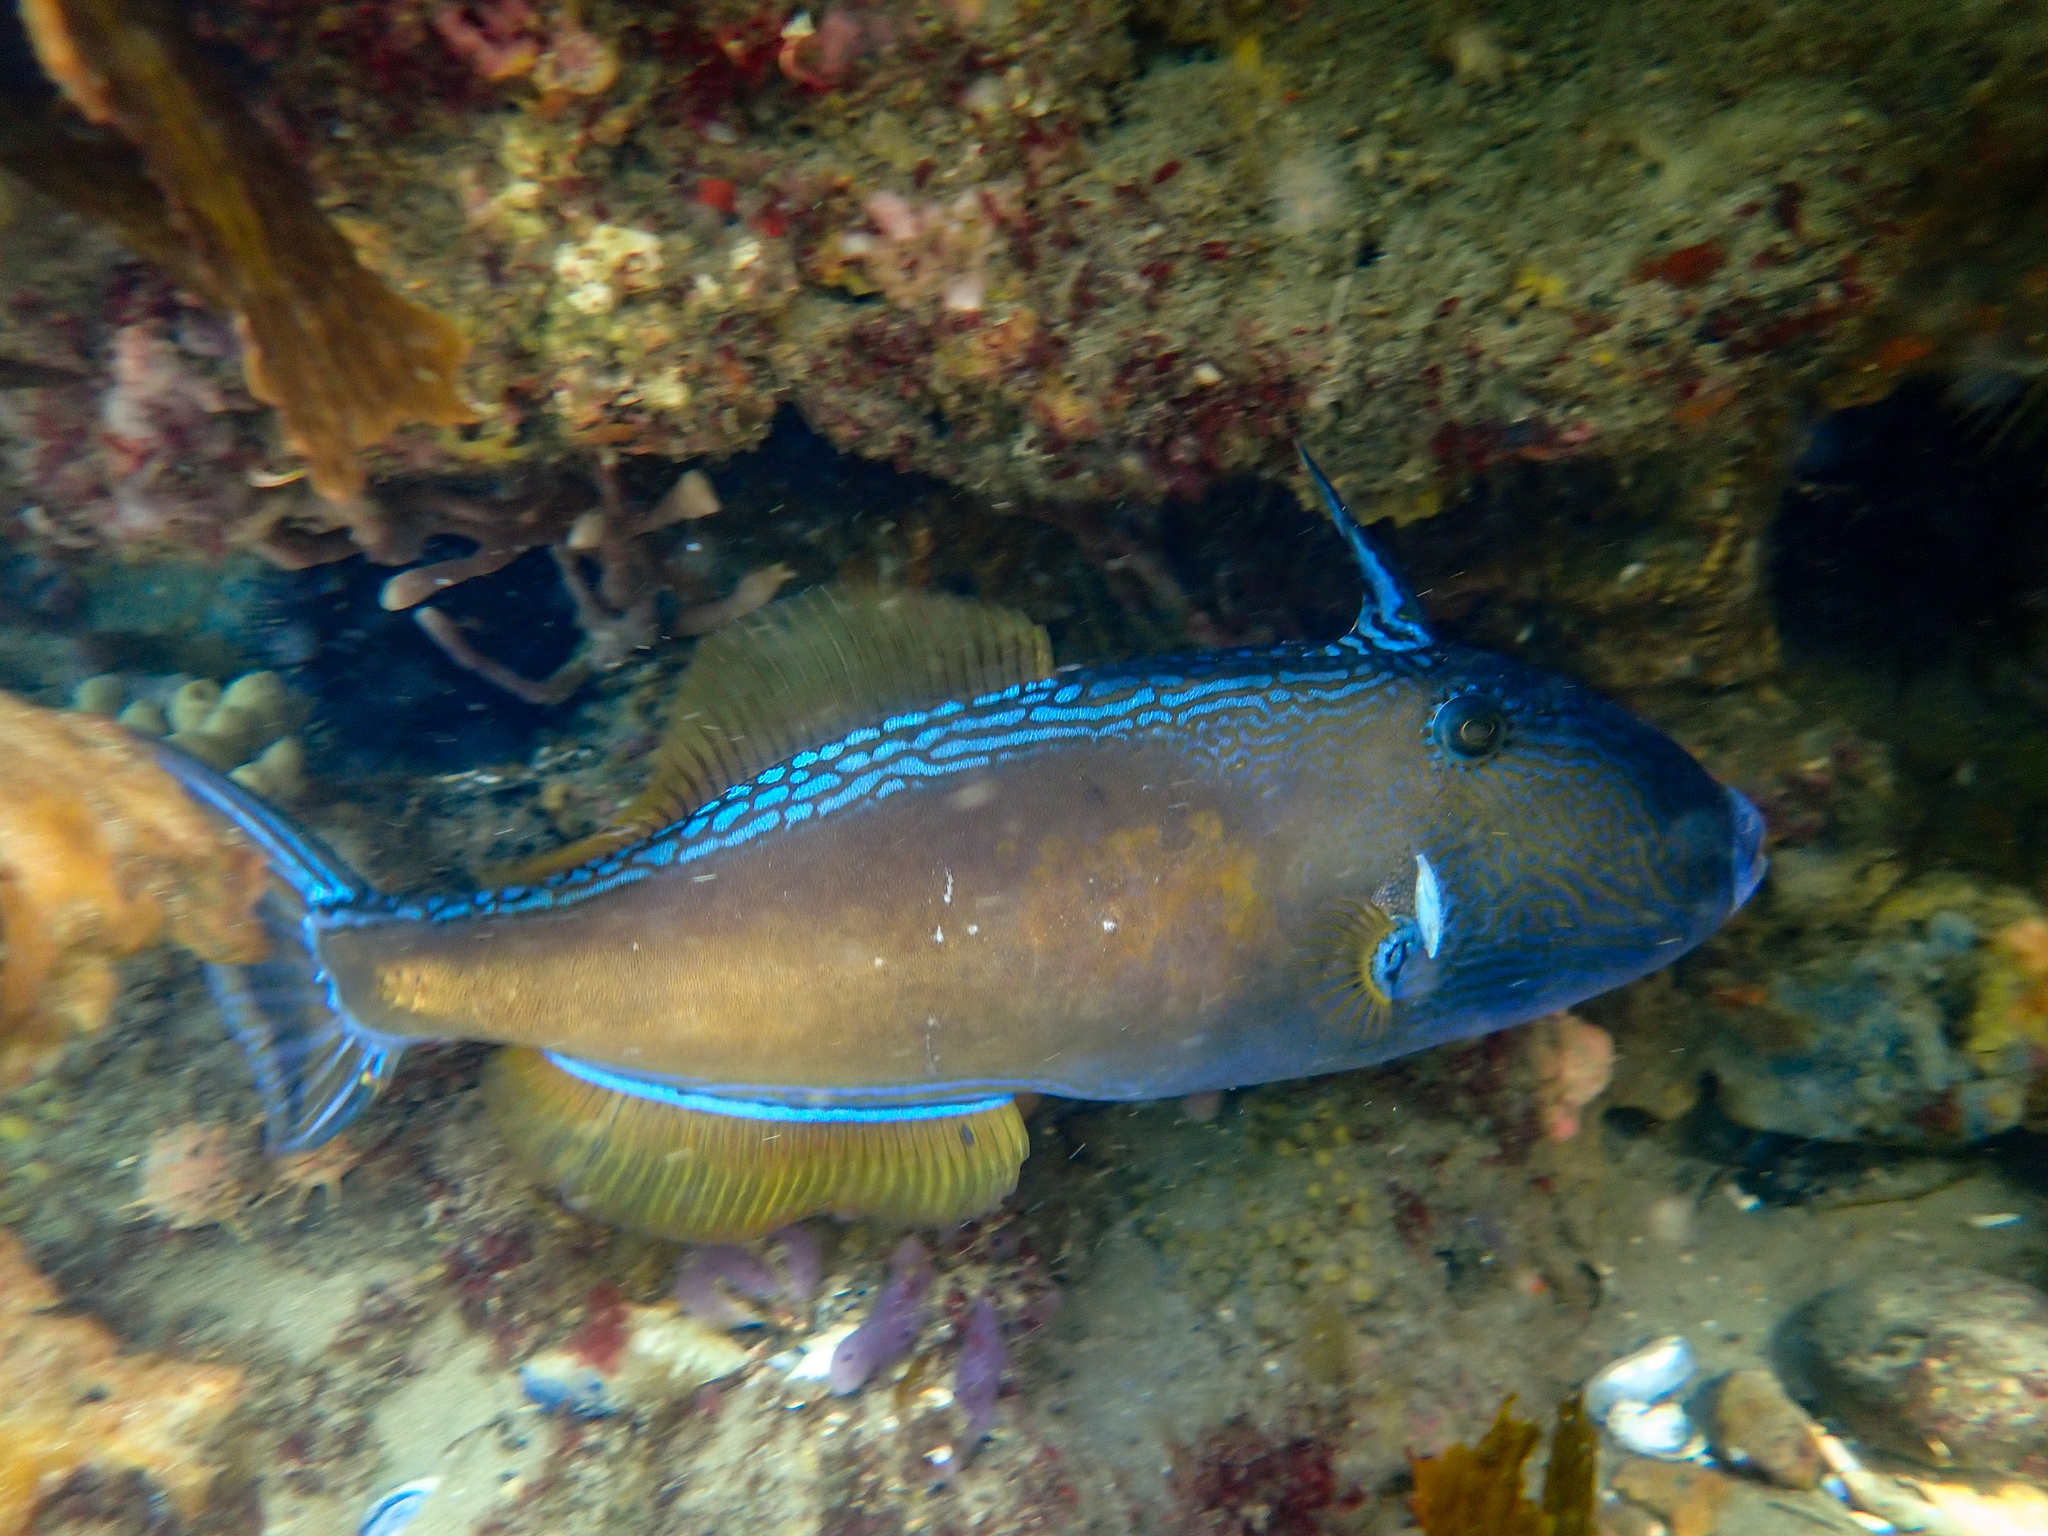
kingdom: Animalia
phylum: Chordata
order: Tetraodontiformes
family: Monacanthidae
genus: Meuschenia
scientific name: Meuschenia freycineti
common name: Freycinet's leatherjacket
